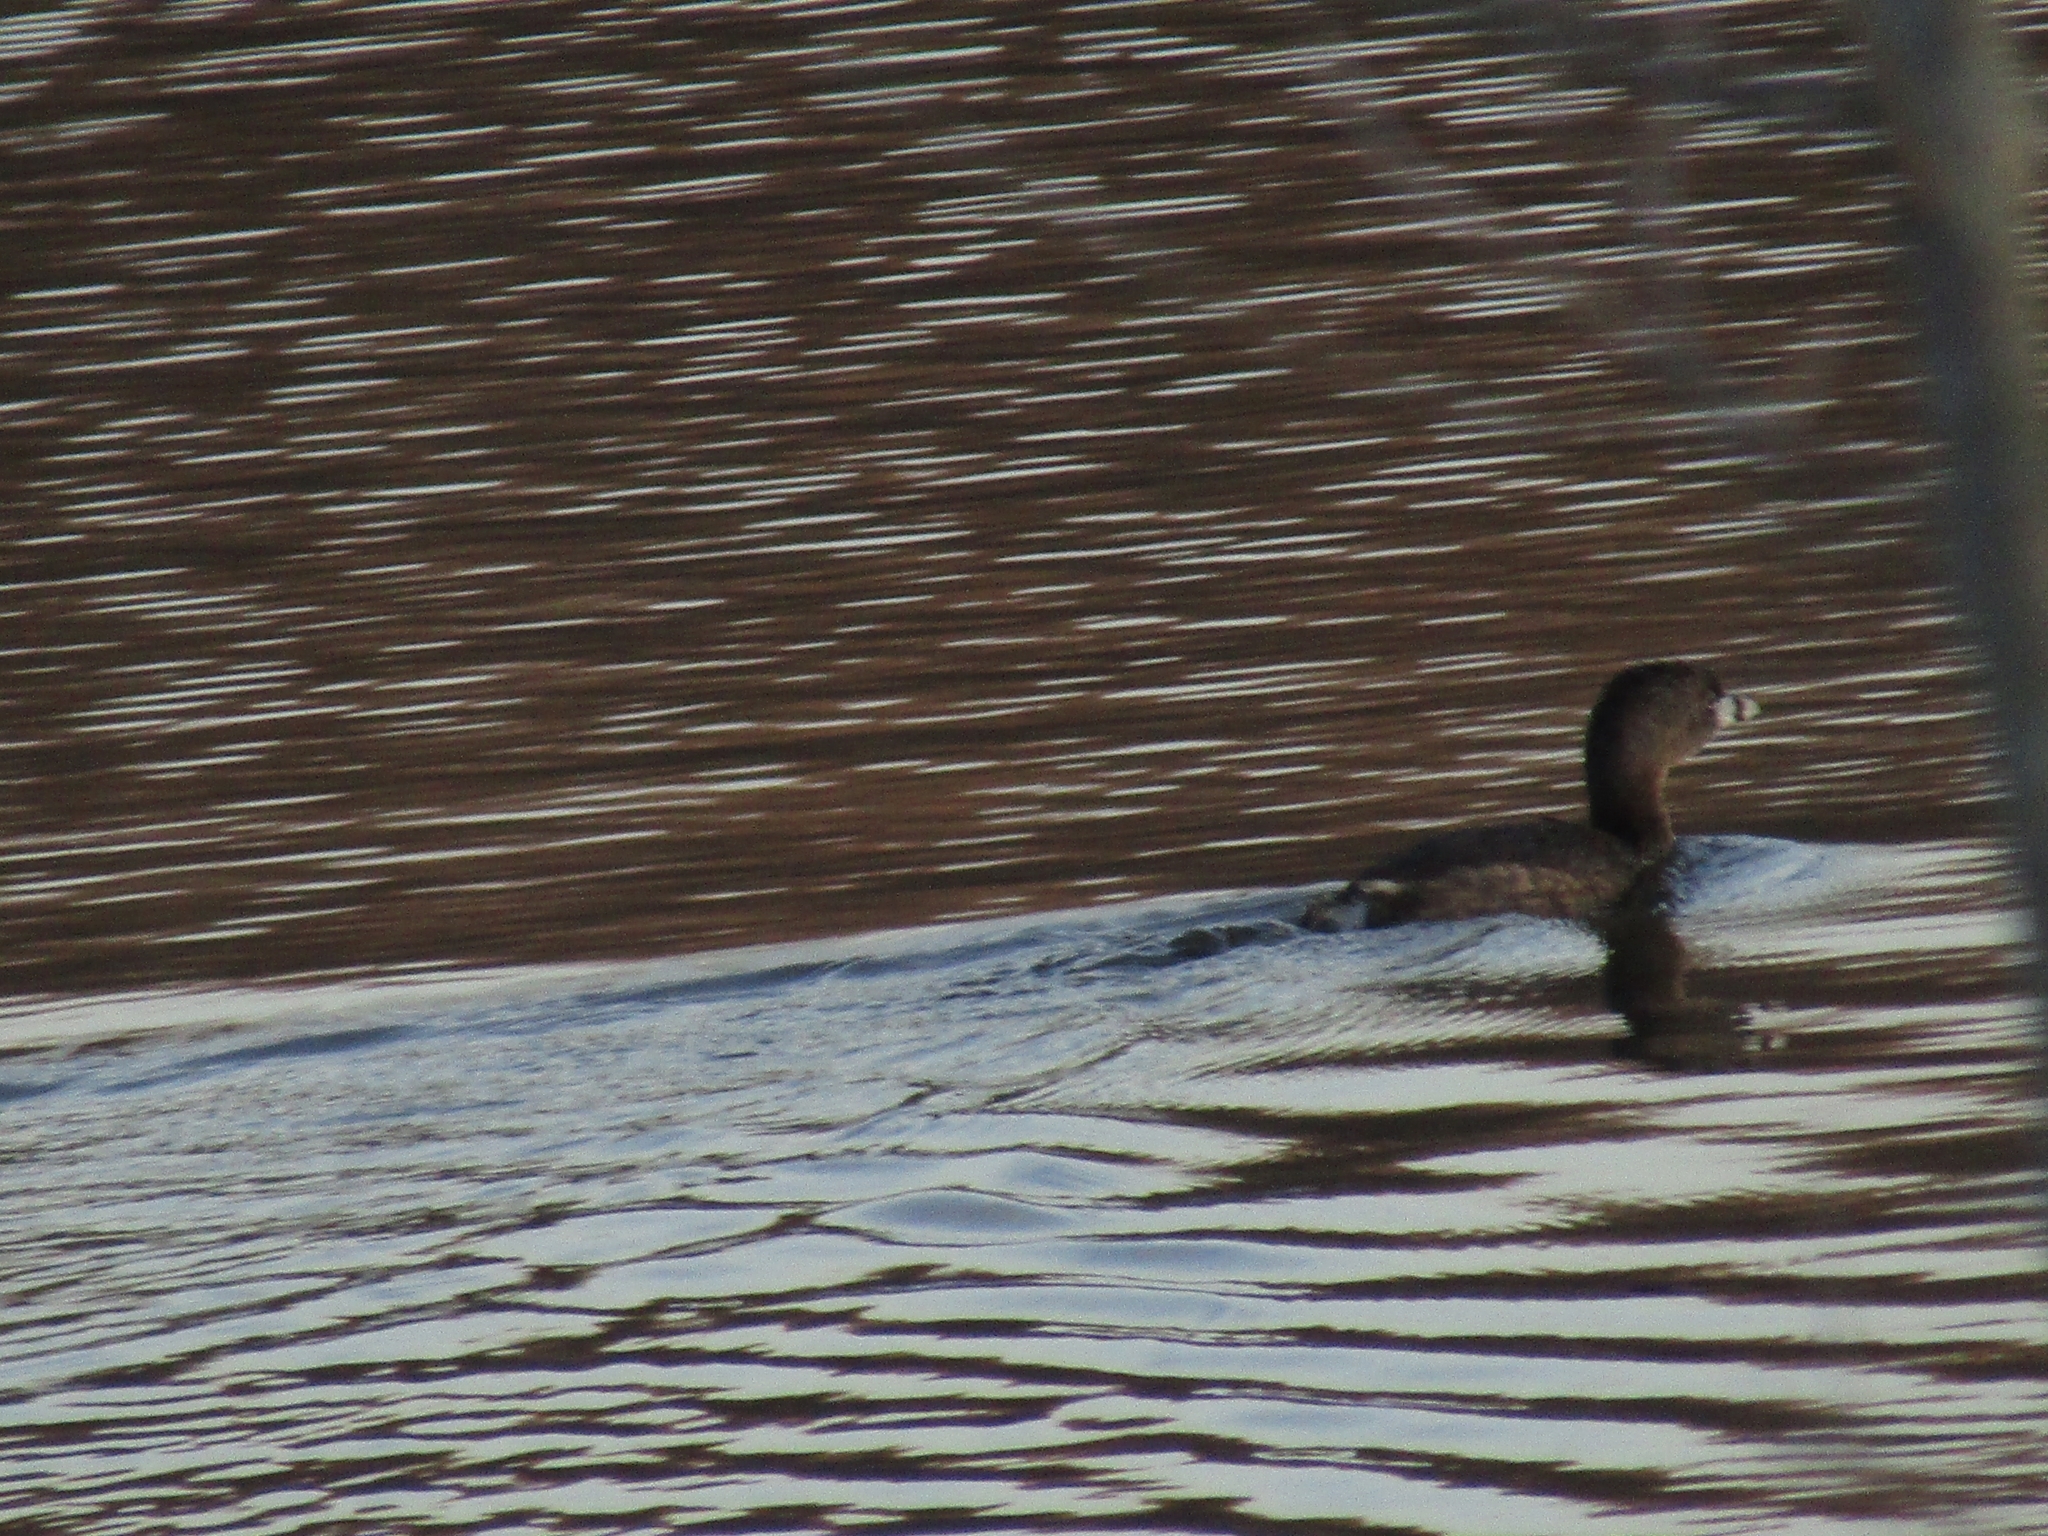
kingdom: Animalia
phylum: Chordata
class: Aves
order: Podicipediformes
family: Podicipedidae
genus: Podilymbus
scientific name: Podilymbus podiceps
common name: Pied-billed grebe
